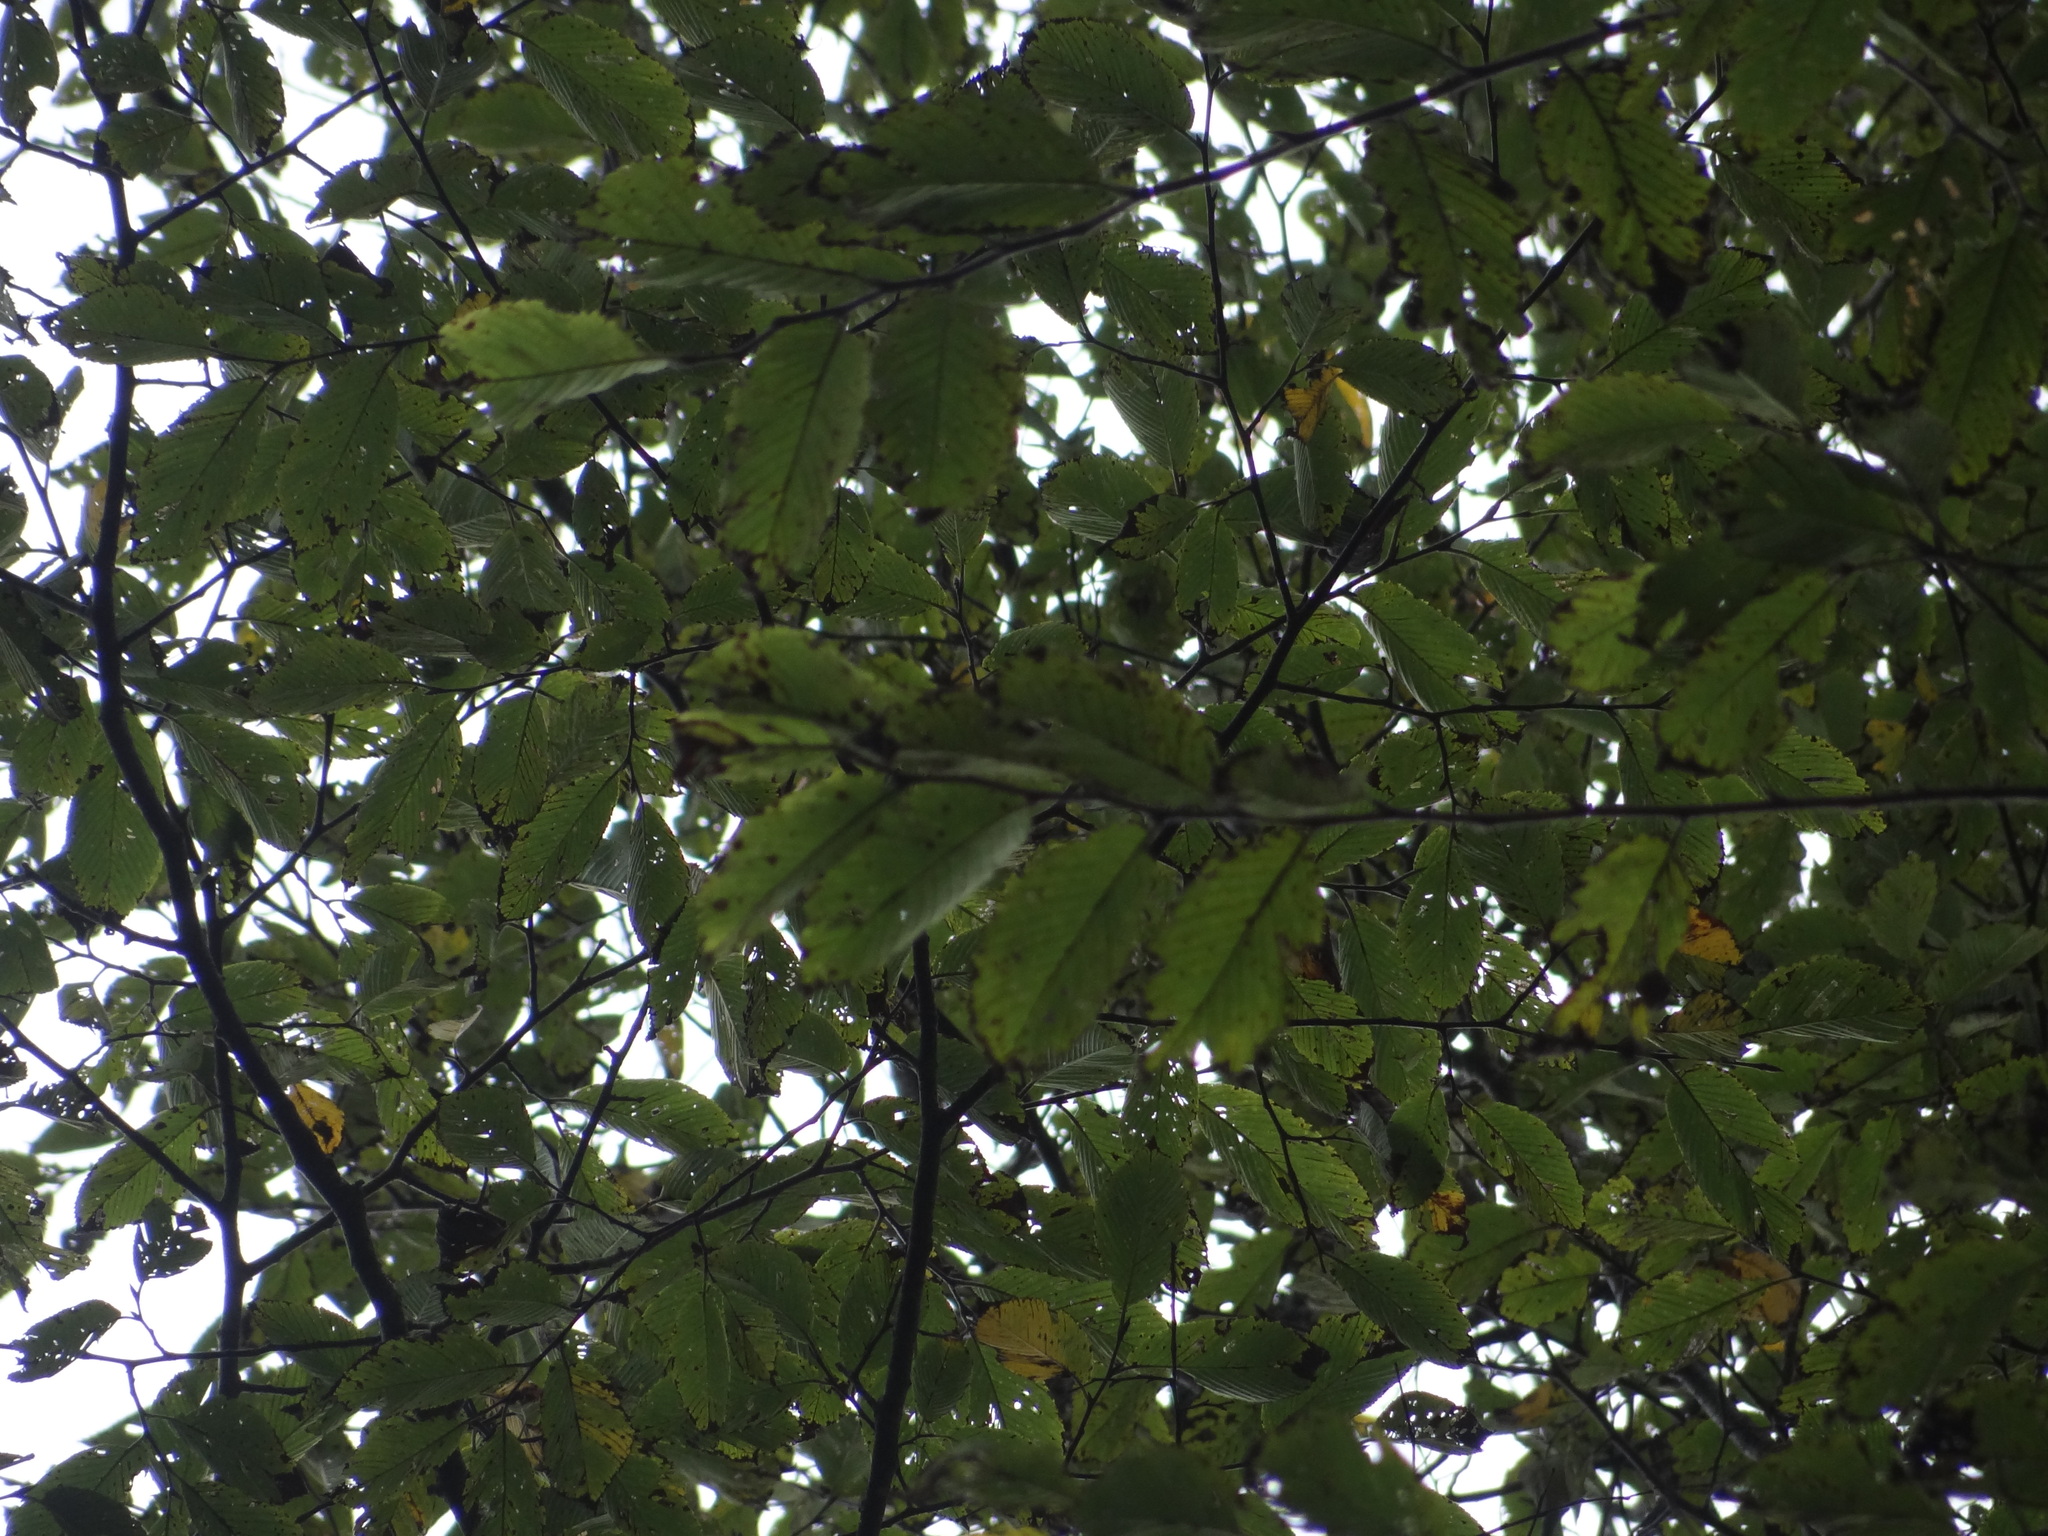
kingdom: Plantae
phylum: Tracheophyta
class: Magnoliopsida
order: Rosales
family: Ulmaceae
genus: Ulmus
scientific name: Ulmus uyematsui
